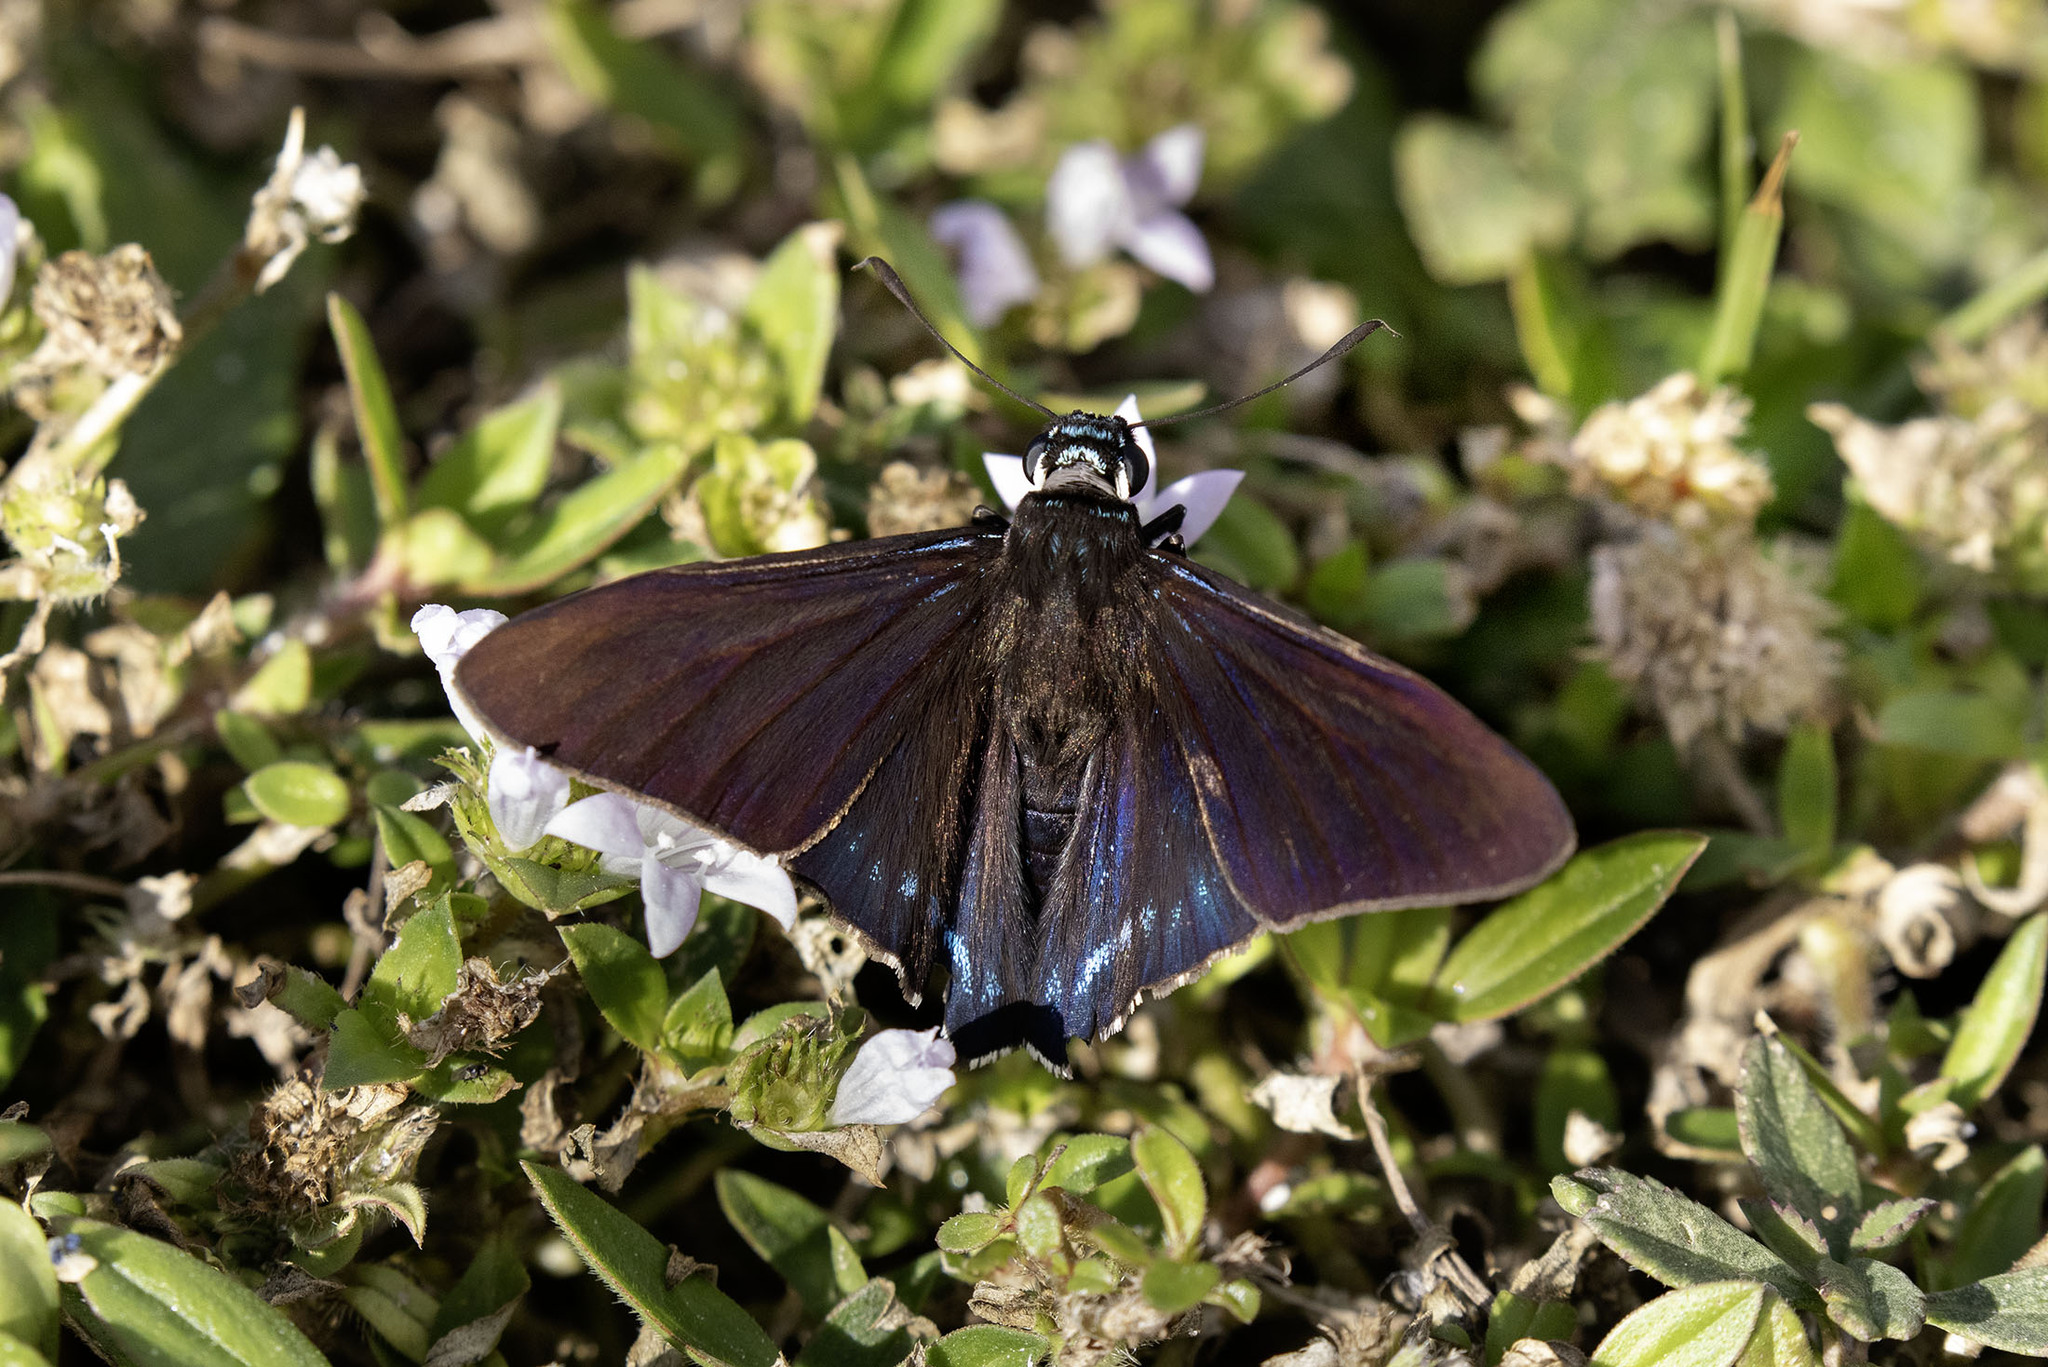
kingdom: Animalia
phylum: Arthropoda
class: Insecta
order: Lepidoptera
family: Hesperiidae
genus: Phocides
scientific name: Phocides pigmalion
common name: Mangrove skipper
